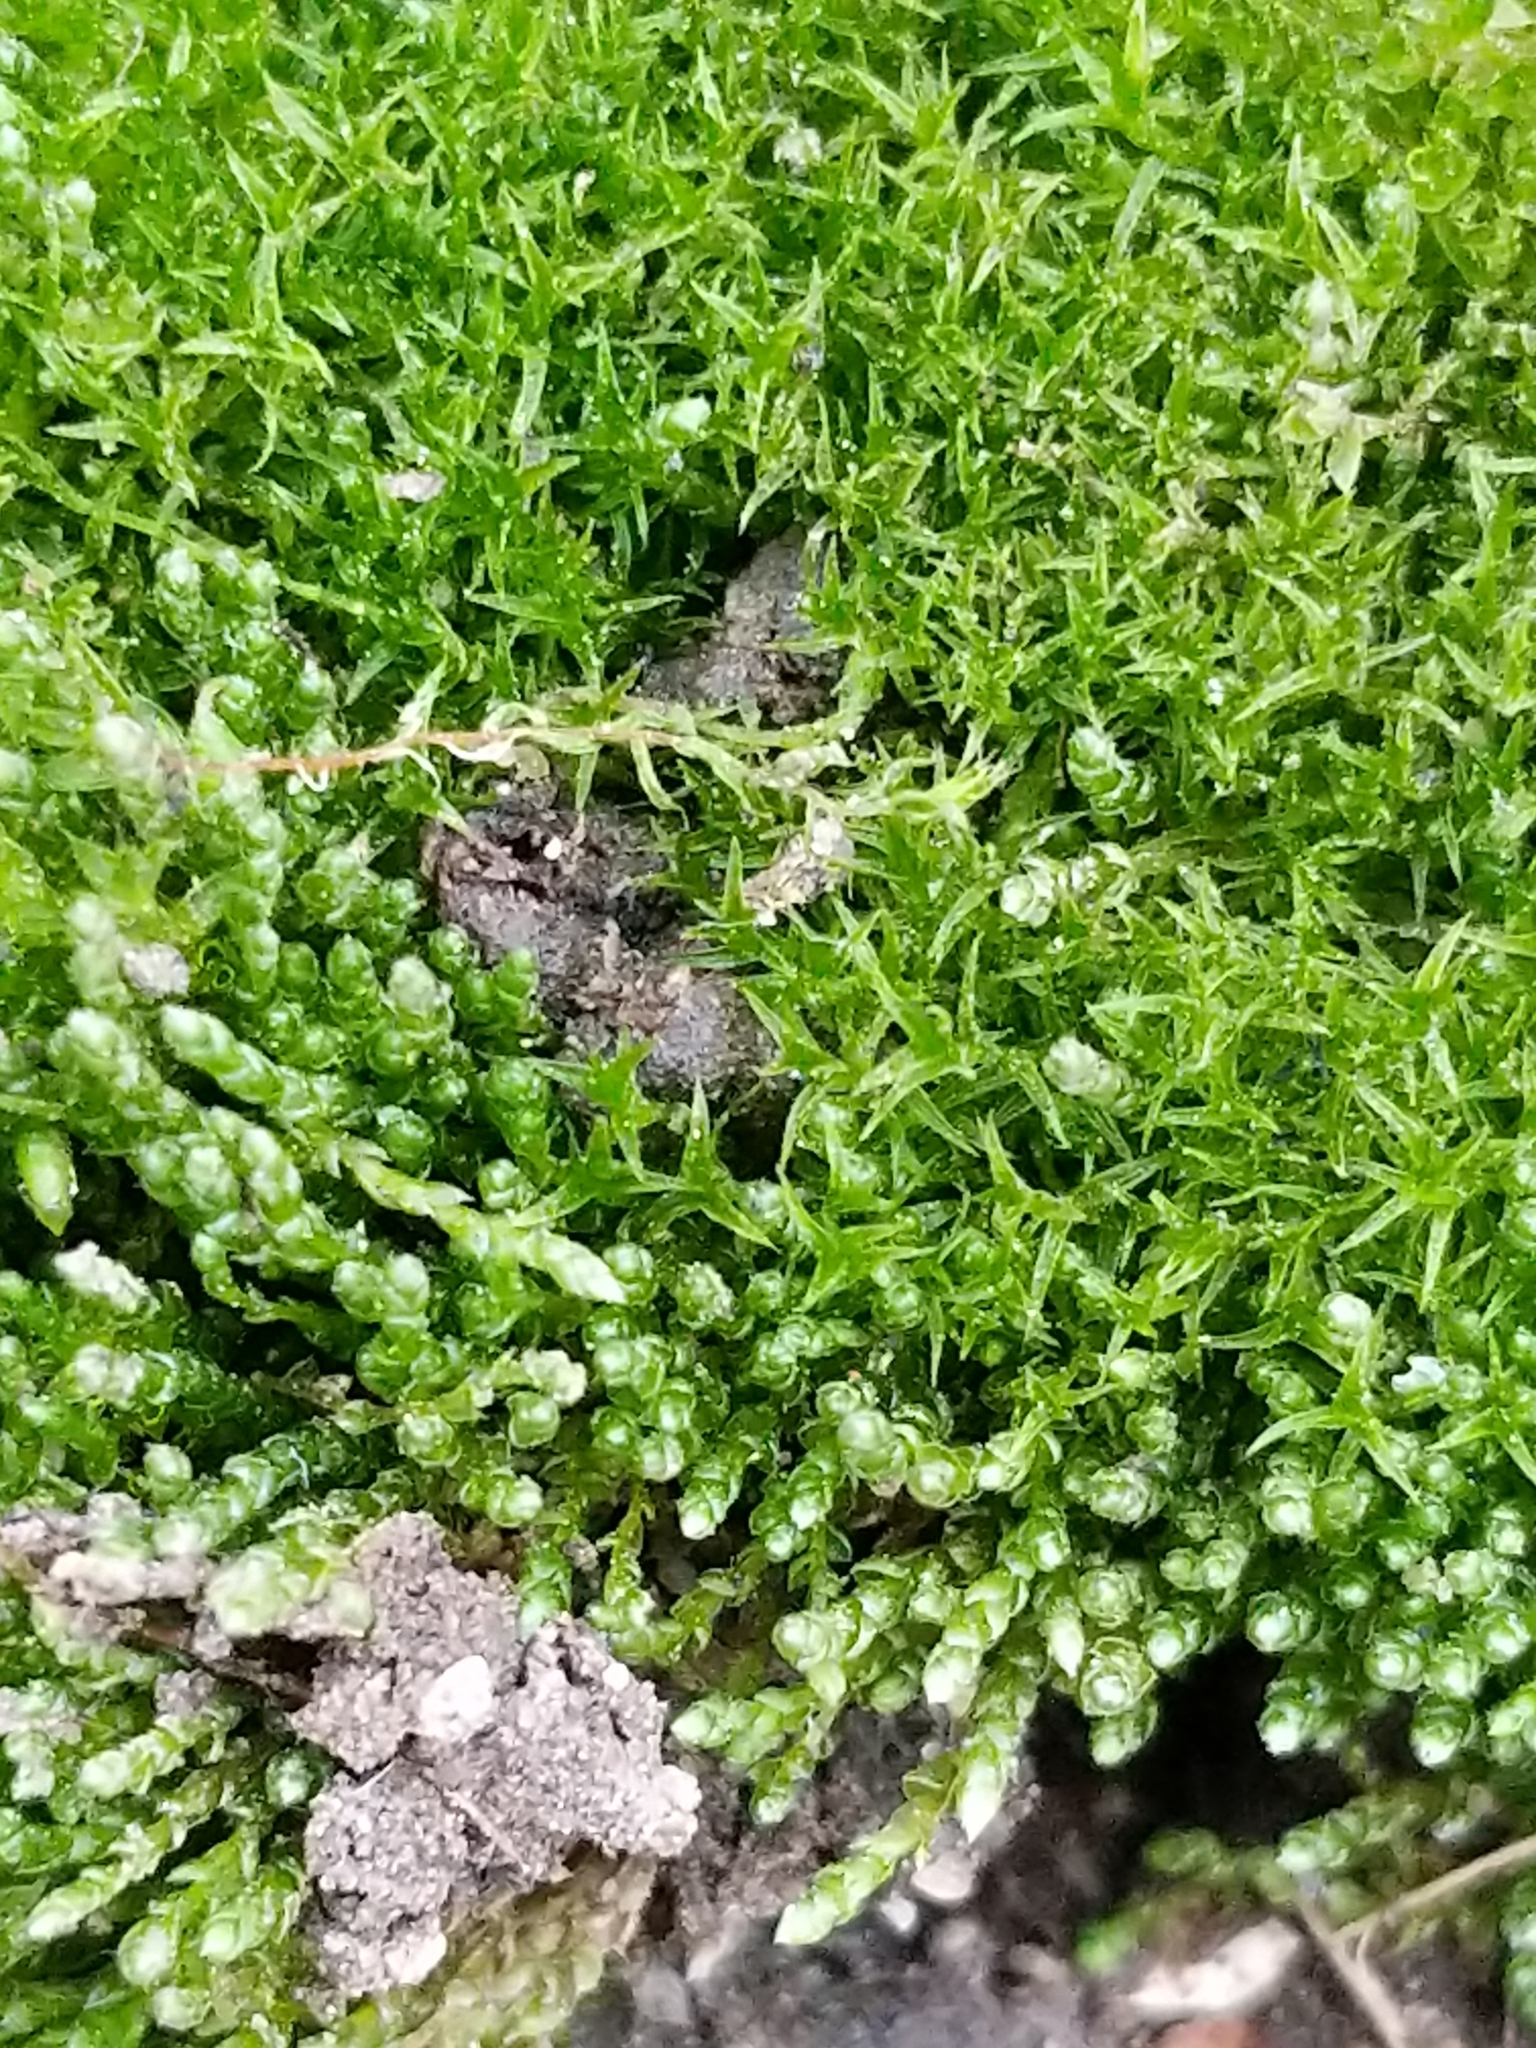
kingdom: Plantae
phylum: Bryophyta
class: Bryopsida
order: Bryales
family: Bryaceae
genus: Bryum
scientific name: Bryum argenteum
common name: Silver-moss
